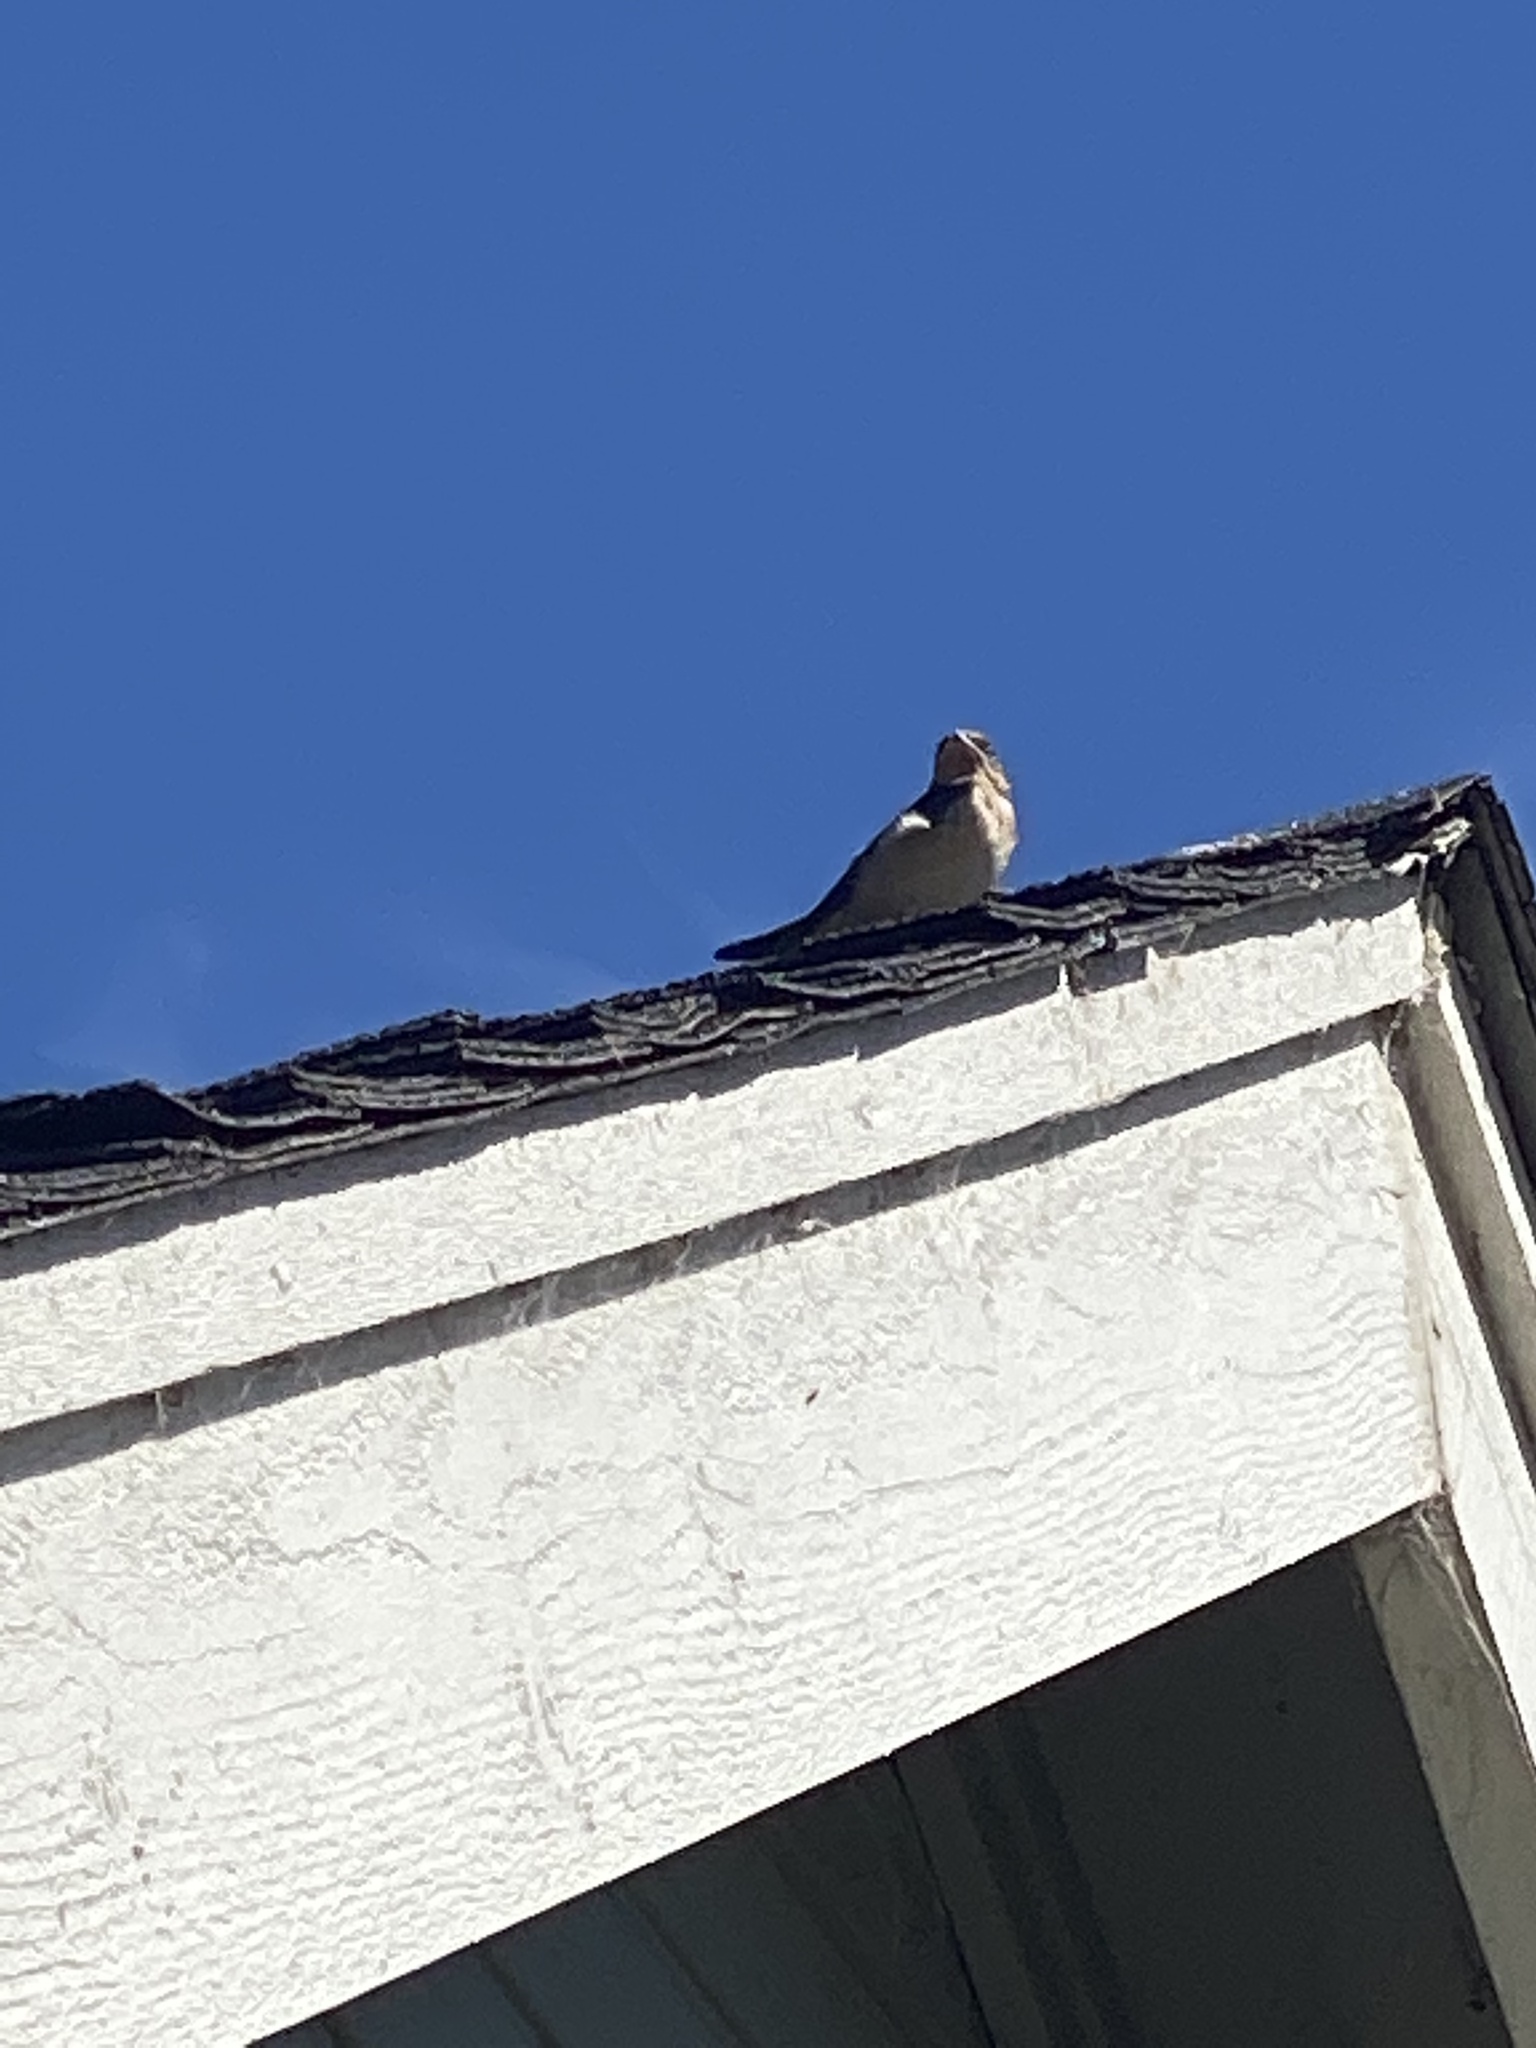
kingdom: Animalia
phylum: Chordata
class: Aves
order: Passeriformes
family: Hirundinidae
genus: Hirundo
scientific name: Hirundo rustica
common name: Barn swallow
